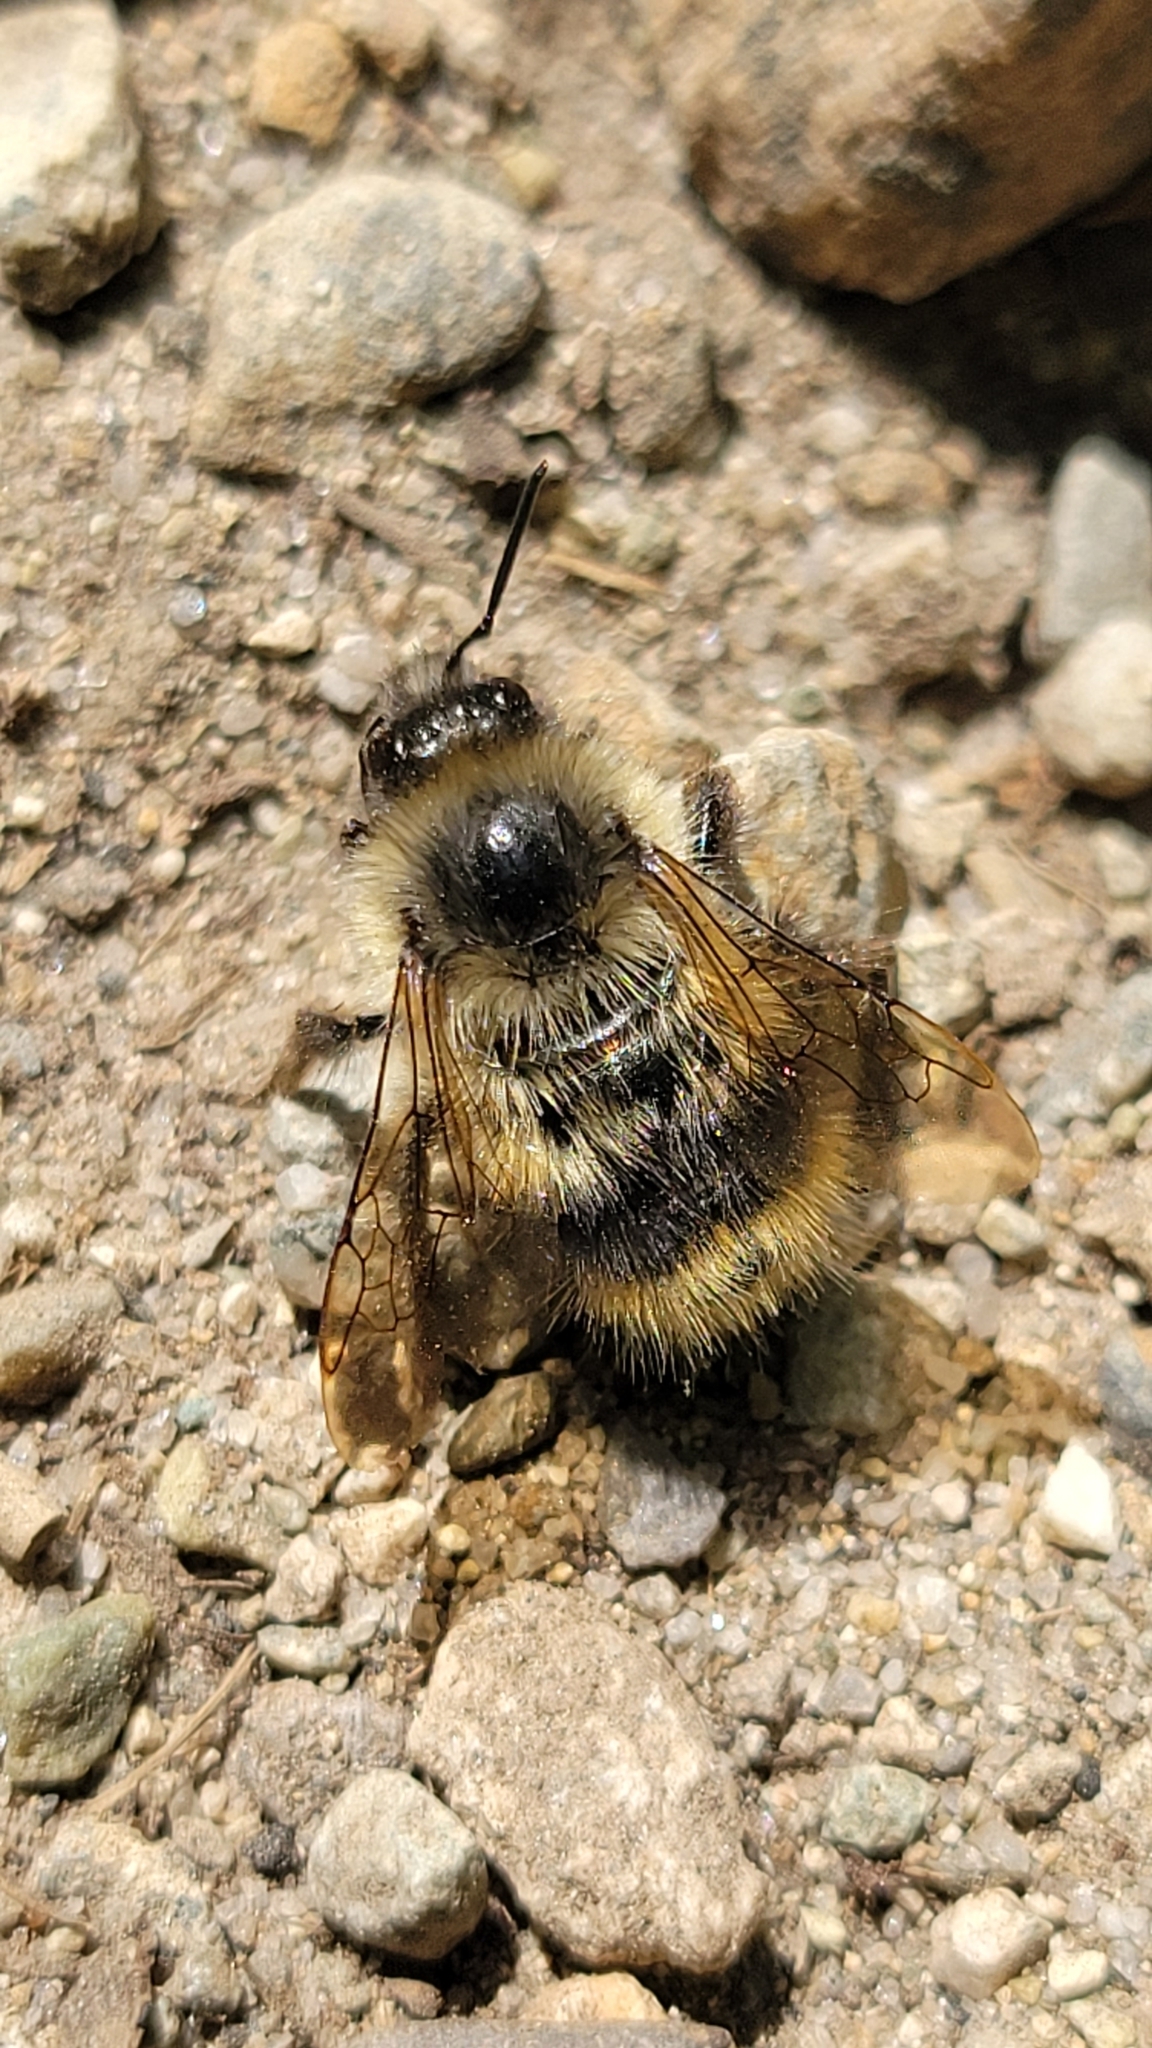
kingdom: Animalia
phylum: Arthropoda
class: Insecta
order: Hymenoptera
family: Apidae
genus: Bombus
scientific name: Bombus mixtus
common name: Fuzzy-horned bumble bee
